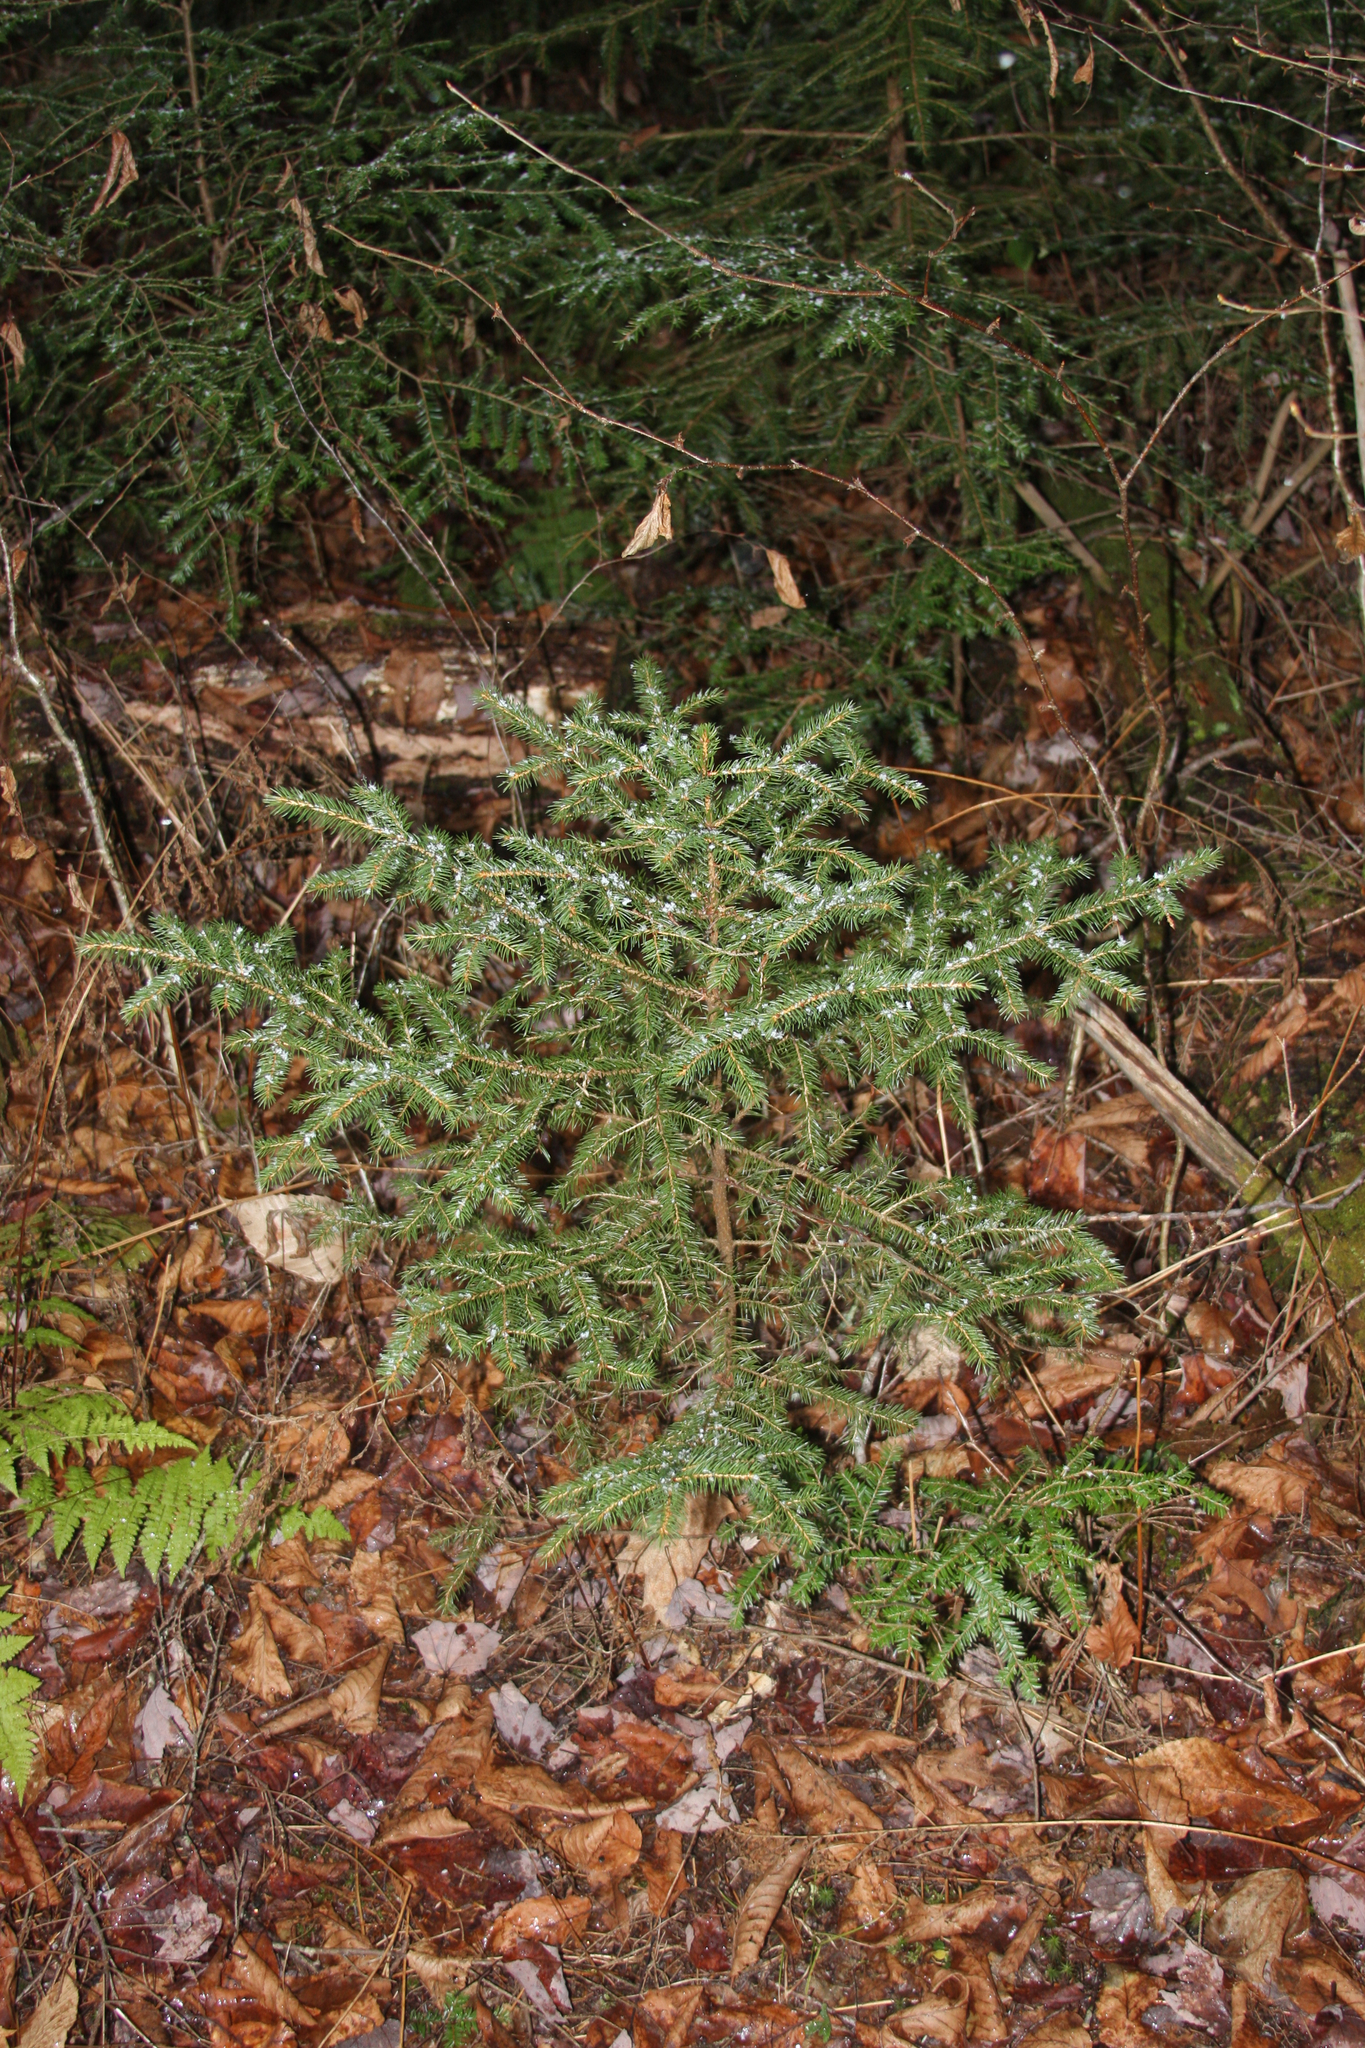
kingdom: Plantae
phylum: Tracheophyta
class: Pinopsida
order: Pinales
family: Pinaceae
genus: Picea
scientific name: Picea rubens
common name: Red spruce
